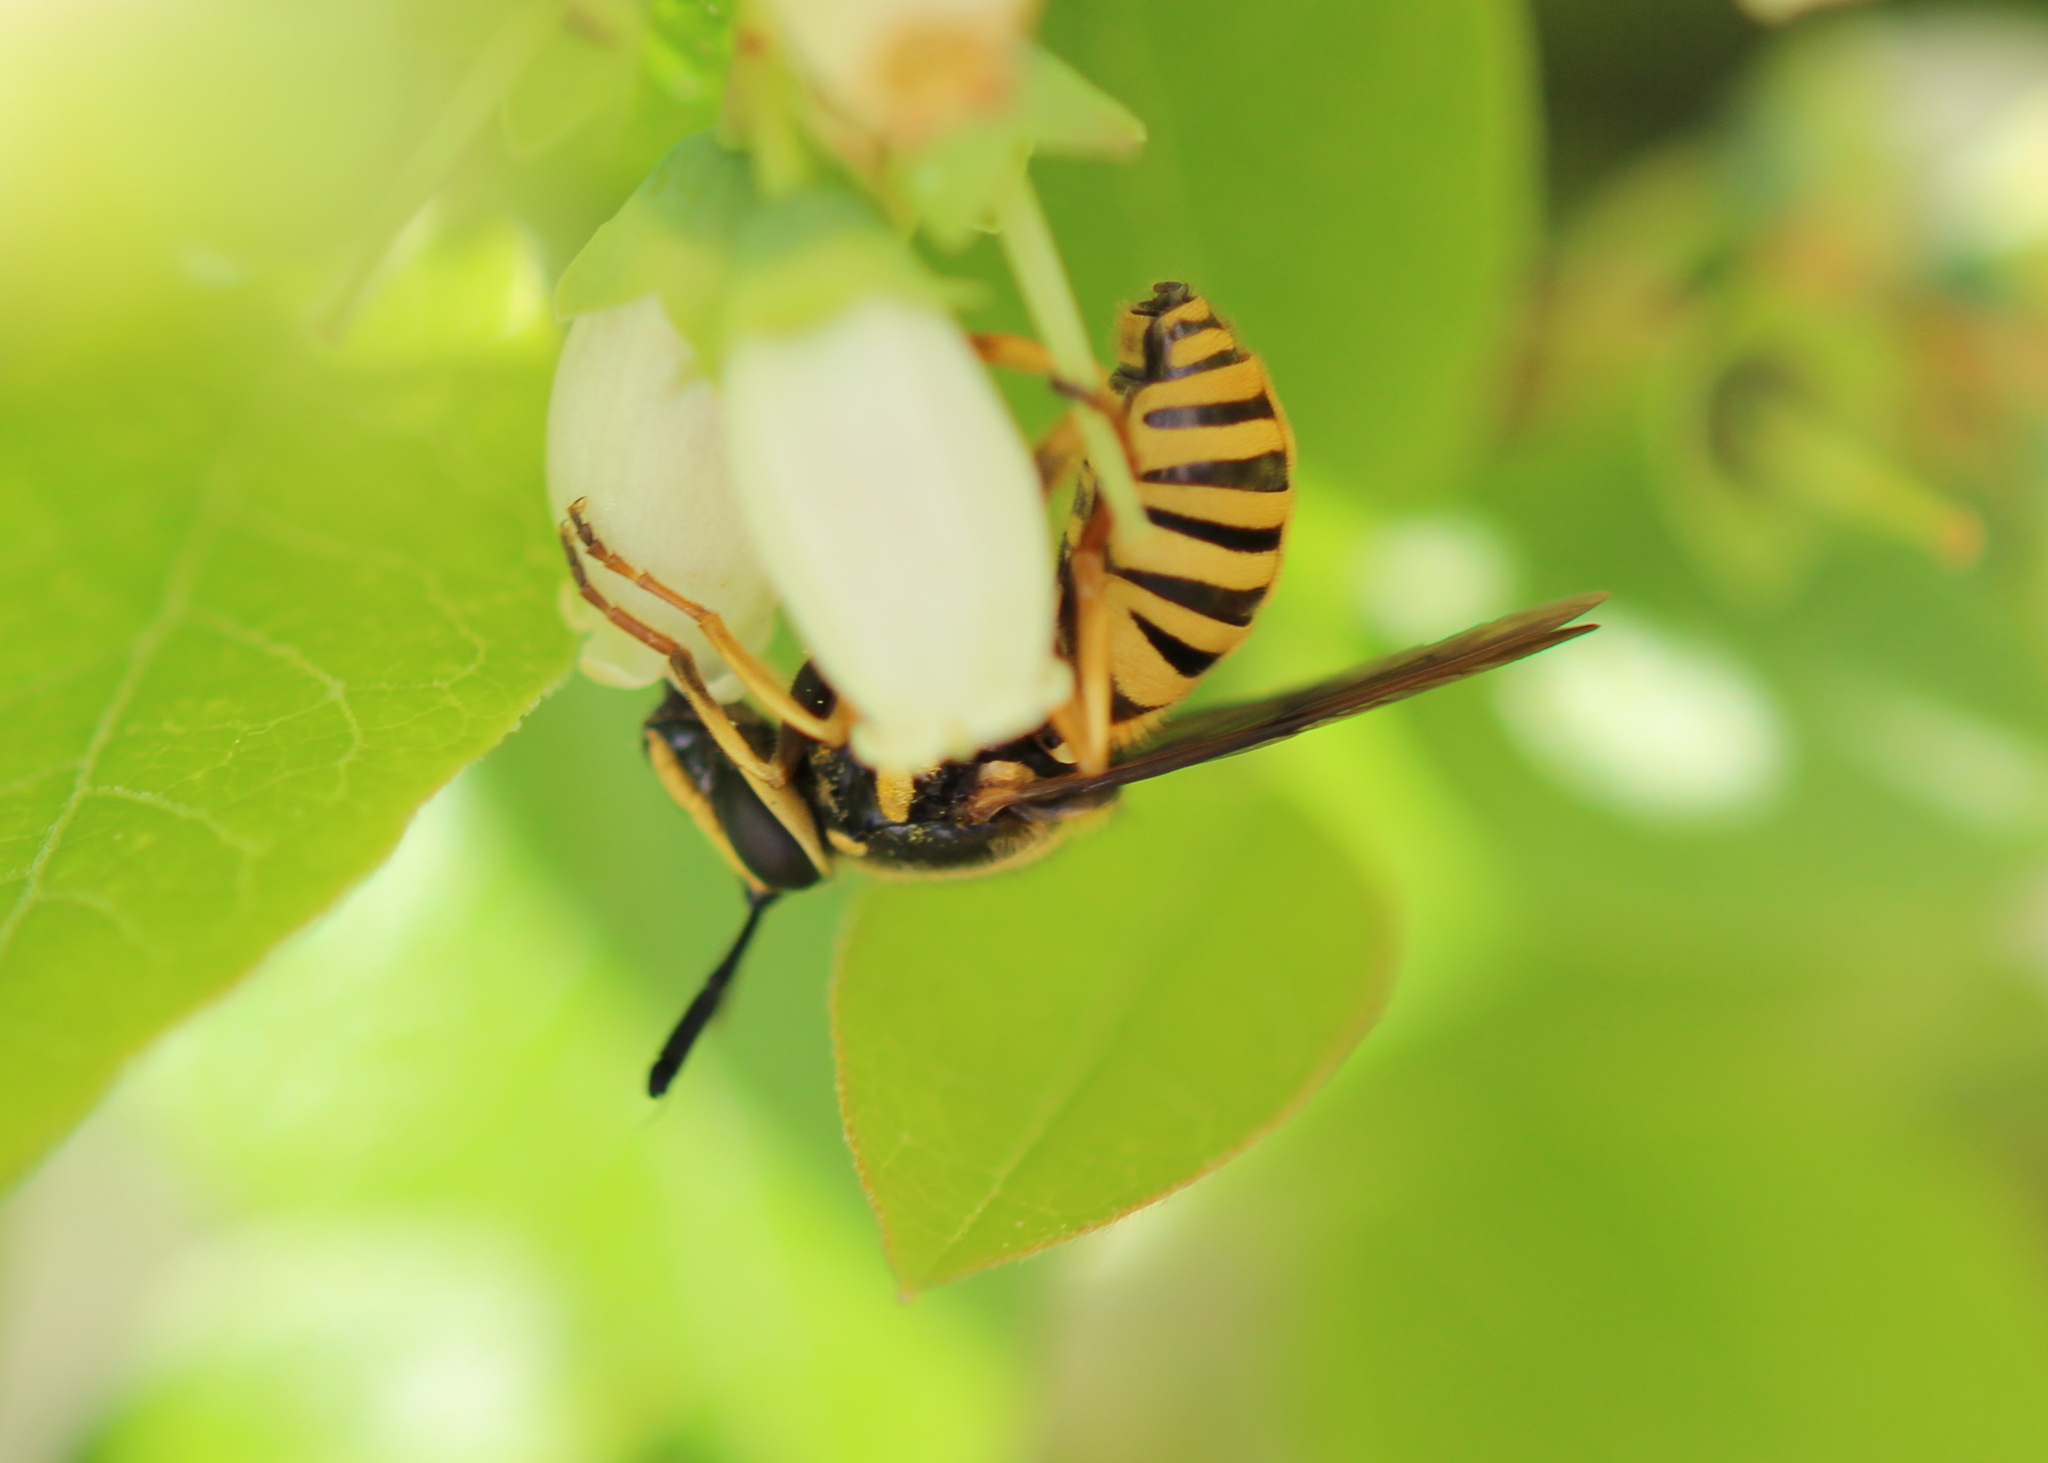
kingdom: Animalia
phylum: Arthropoda
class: Insecta
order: Diptera
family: Syrphidae
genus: Sphecomyia
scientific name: Sphecomyia vittata
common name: Long-horned yellowjacket fly
